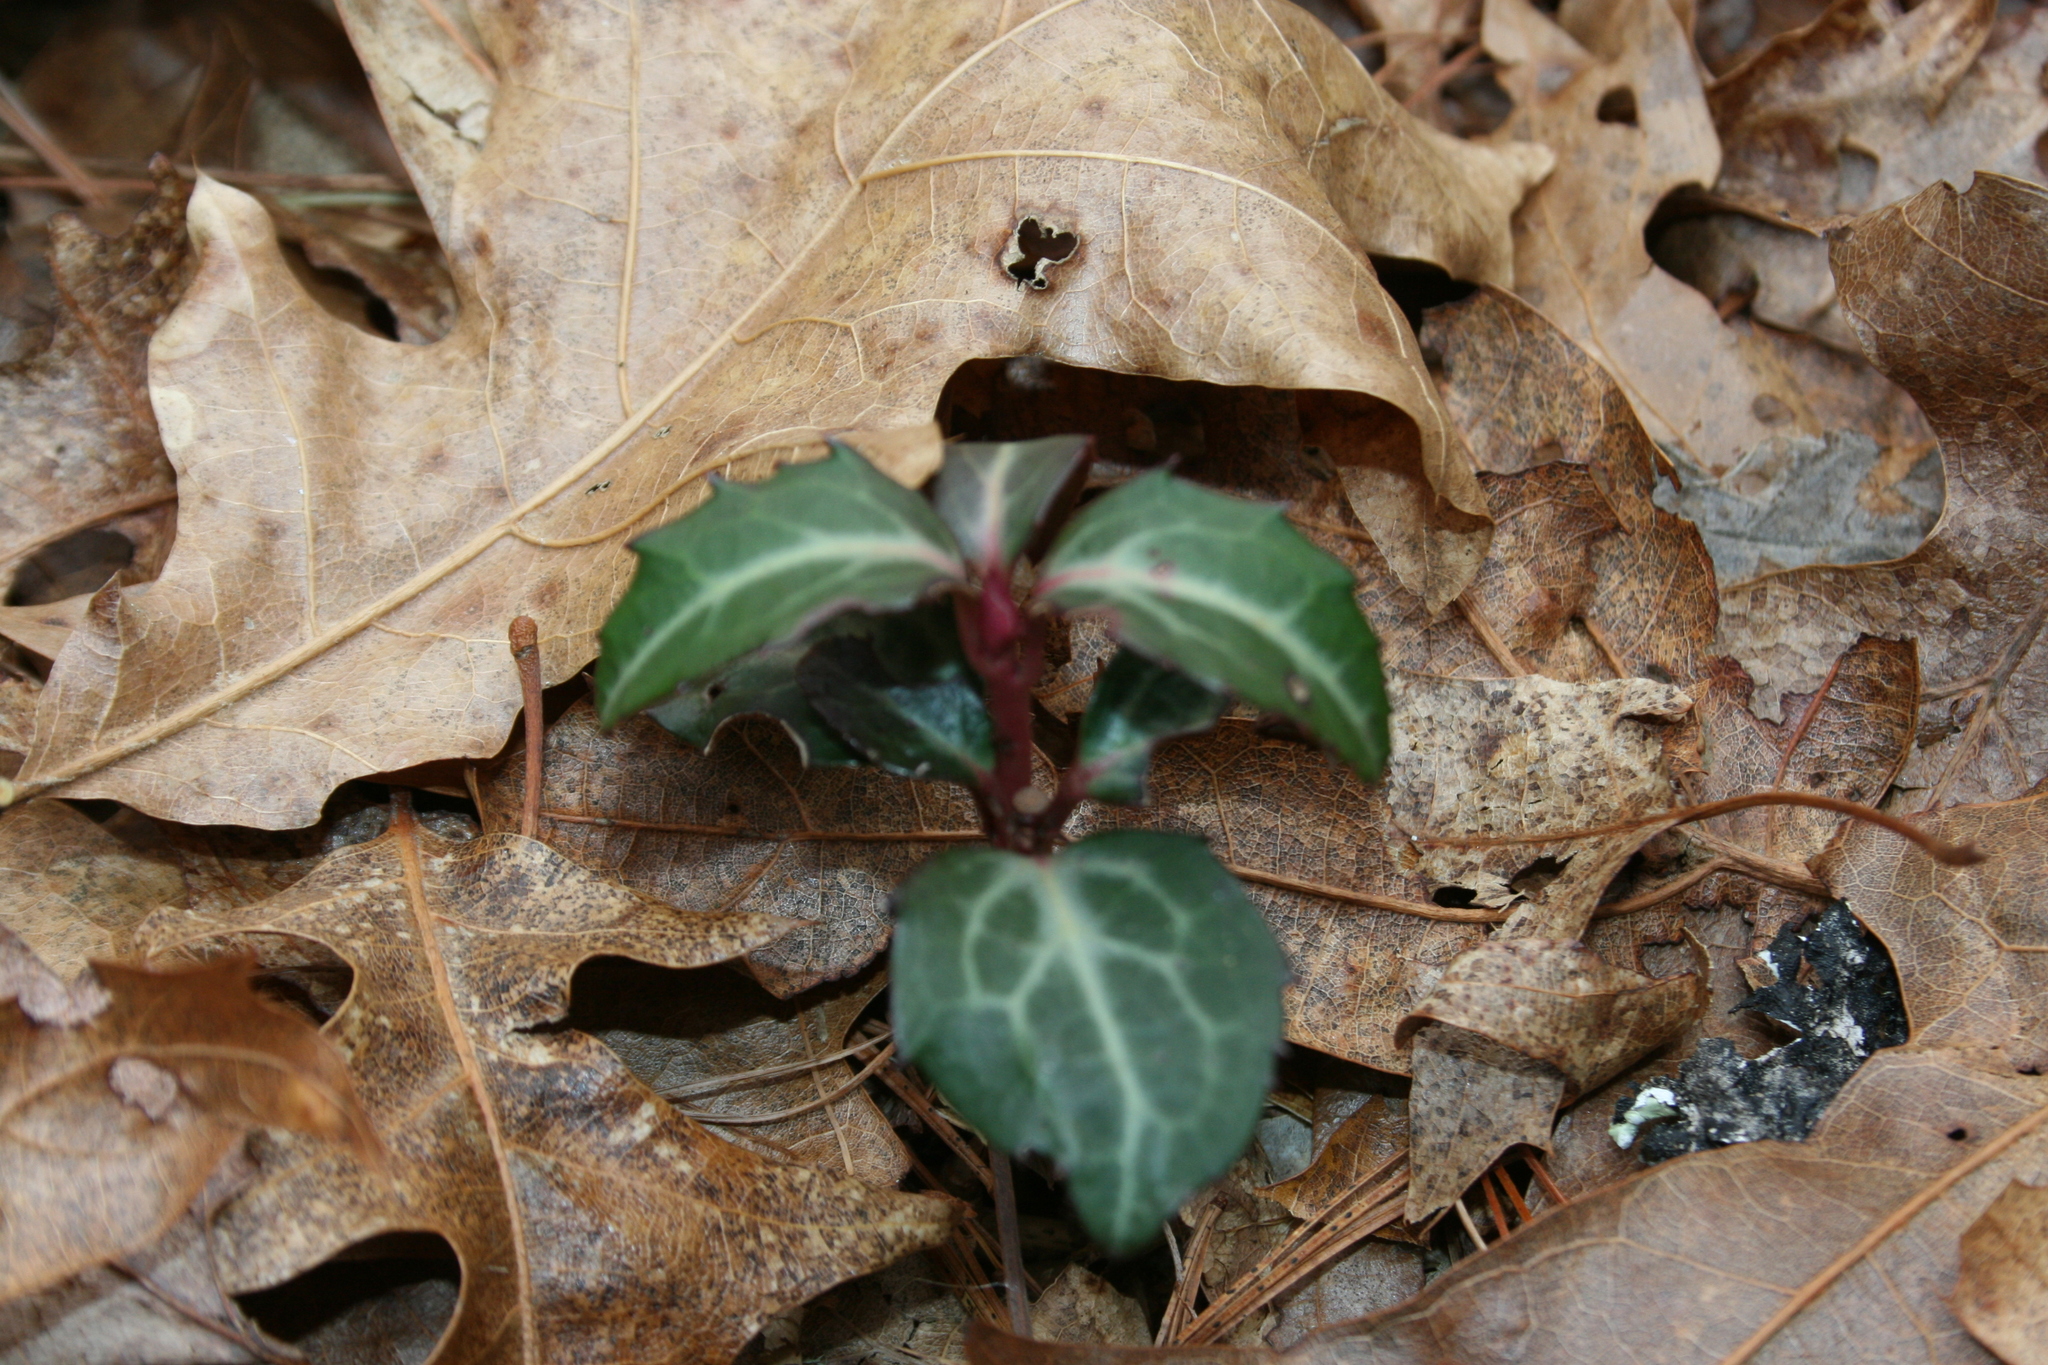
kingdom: Plantae
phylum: Tracheophyta
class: Magnoliopsida
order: Ericales
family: Ericaceae
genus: Chimaphila
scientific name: Chimaphila maculata
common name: Spotted pipsissewa
